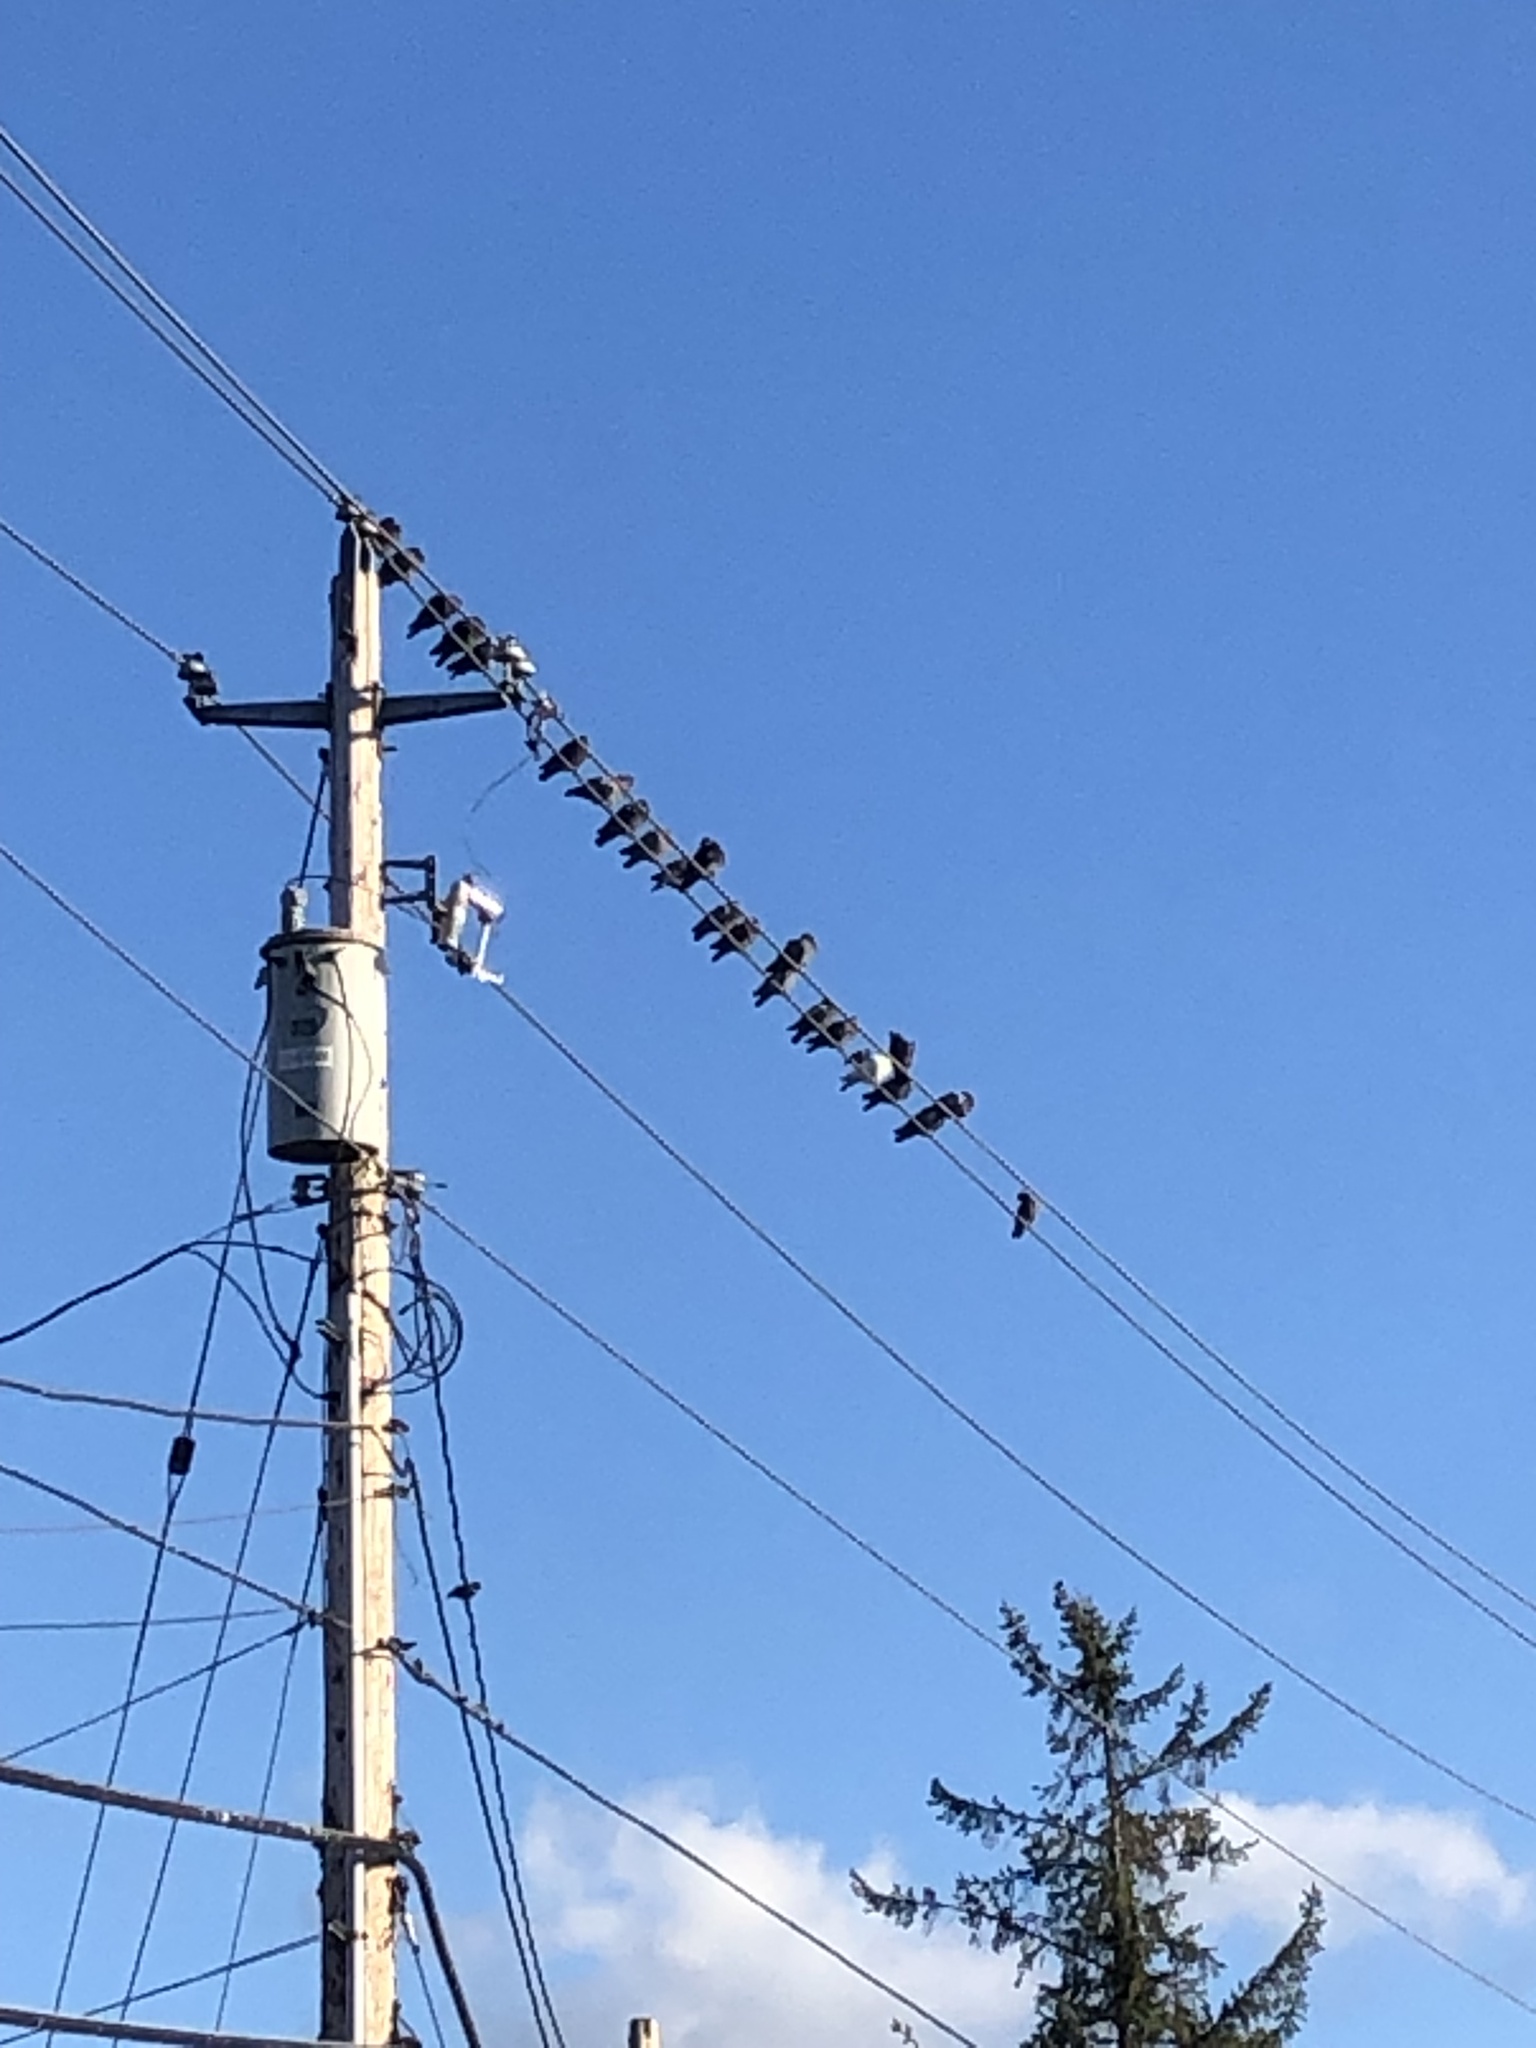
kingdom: Animalia
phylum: Chordata
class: Aves
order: Columbiformes
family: Columbidae
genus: Columba
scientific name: Columba livia
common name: Rock pigeon
